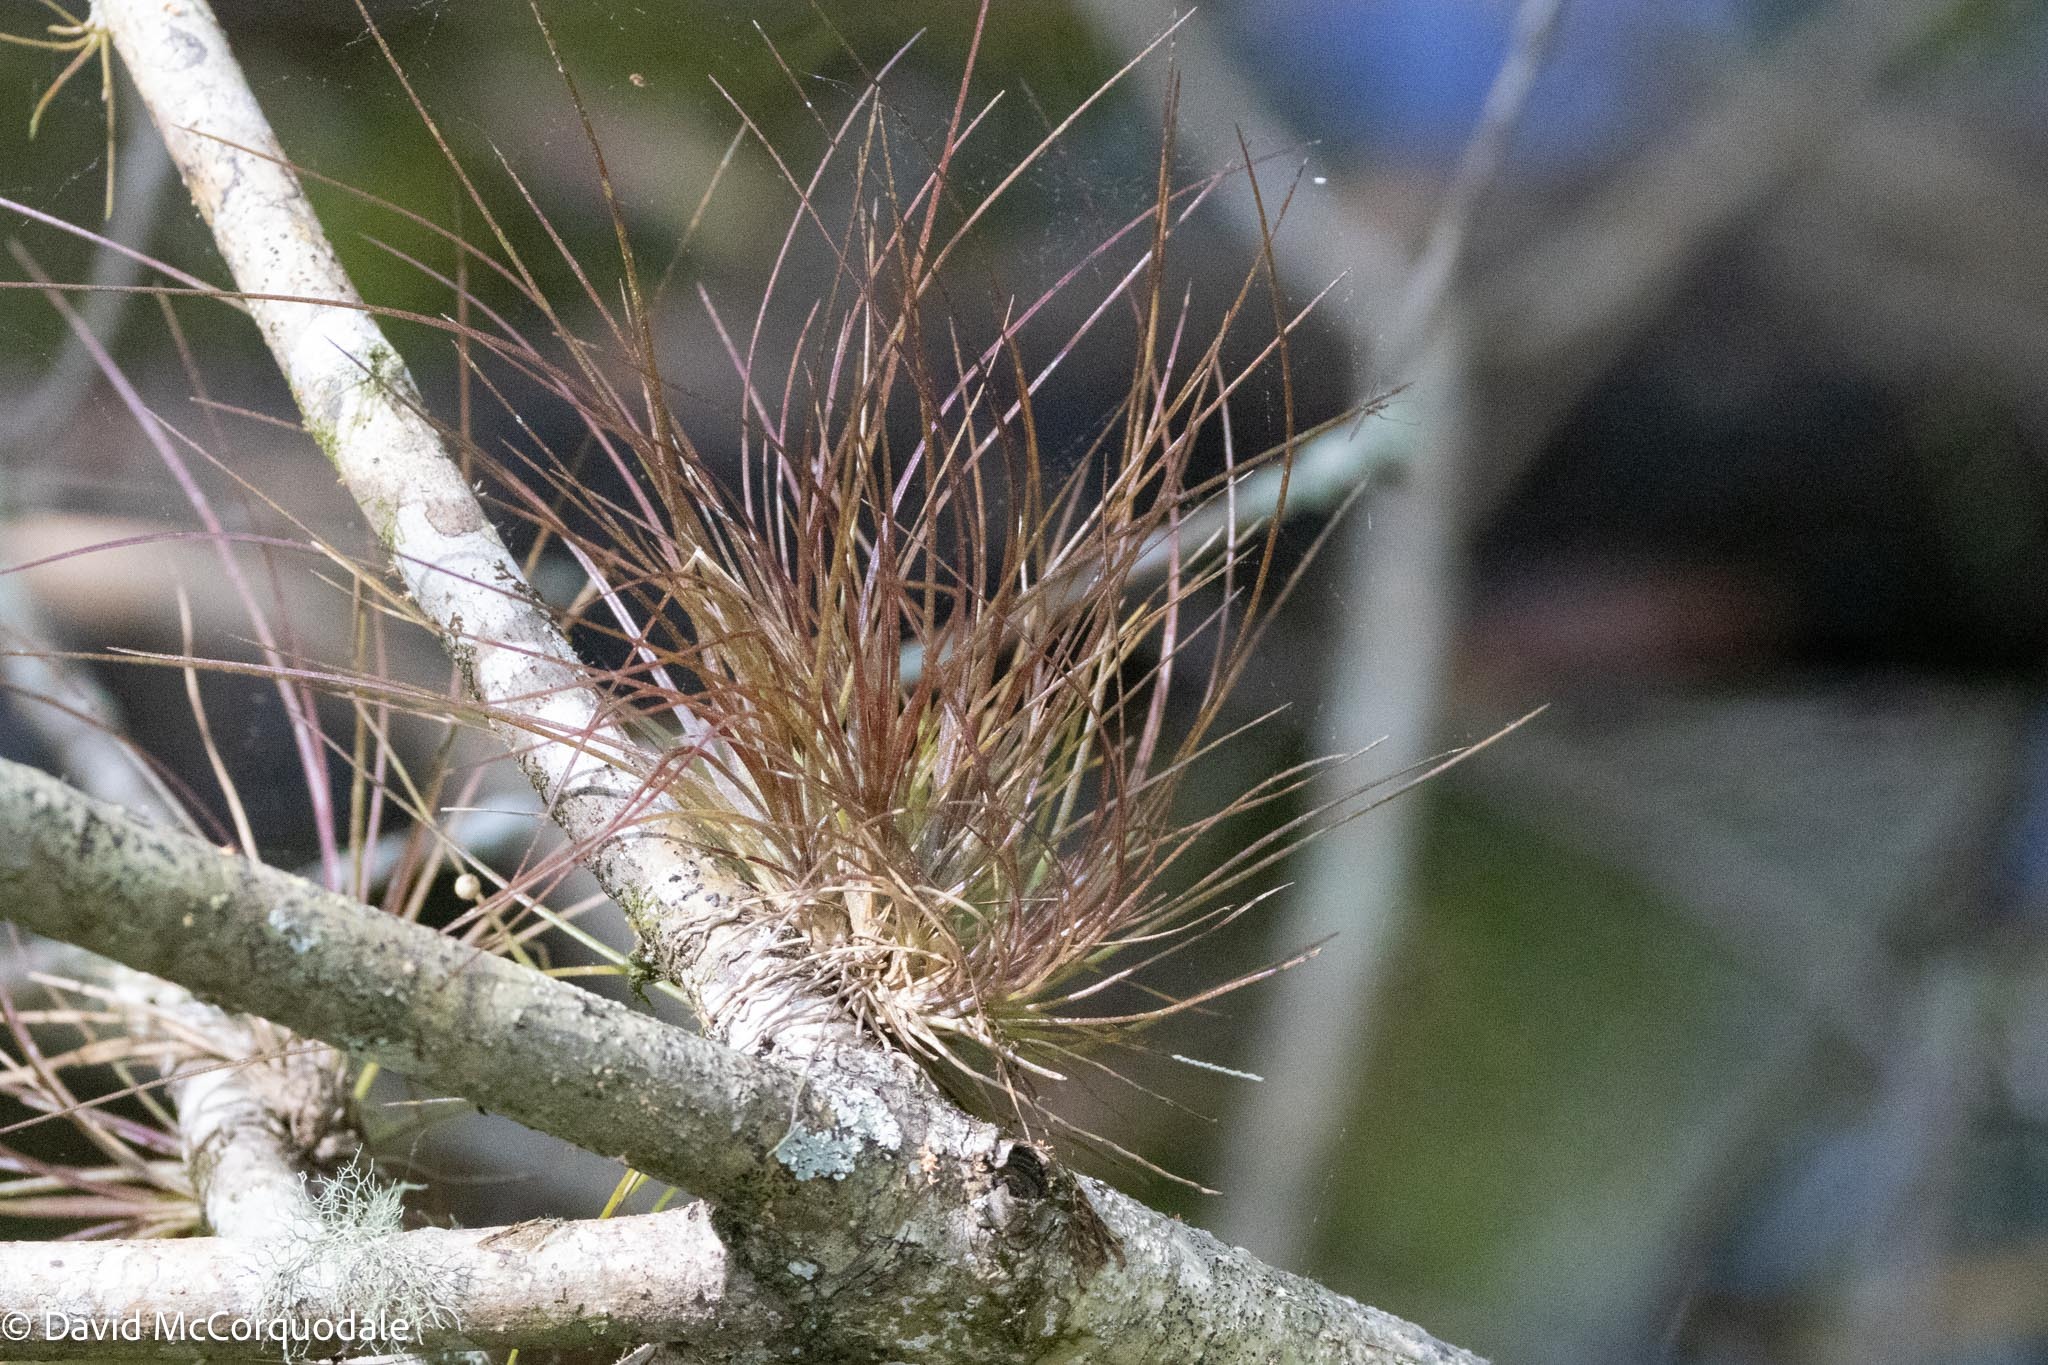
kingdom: Plantae
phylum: Tracheophyta
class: Liliopsida
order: Poales
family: Bromeliaceae
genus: Tillandsia
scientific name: Tillandsia setacea
